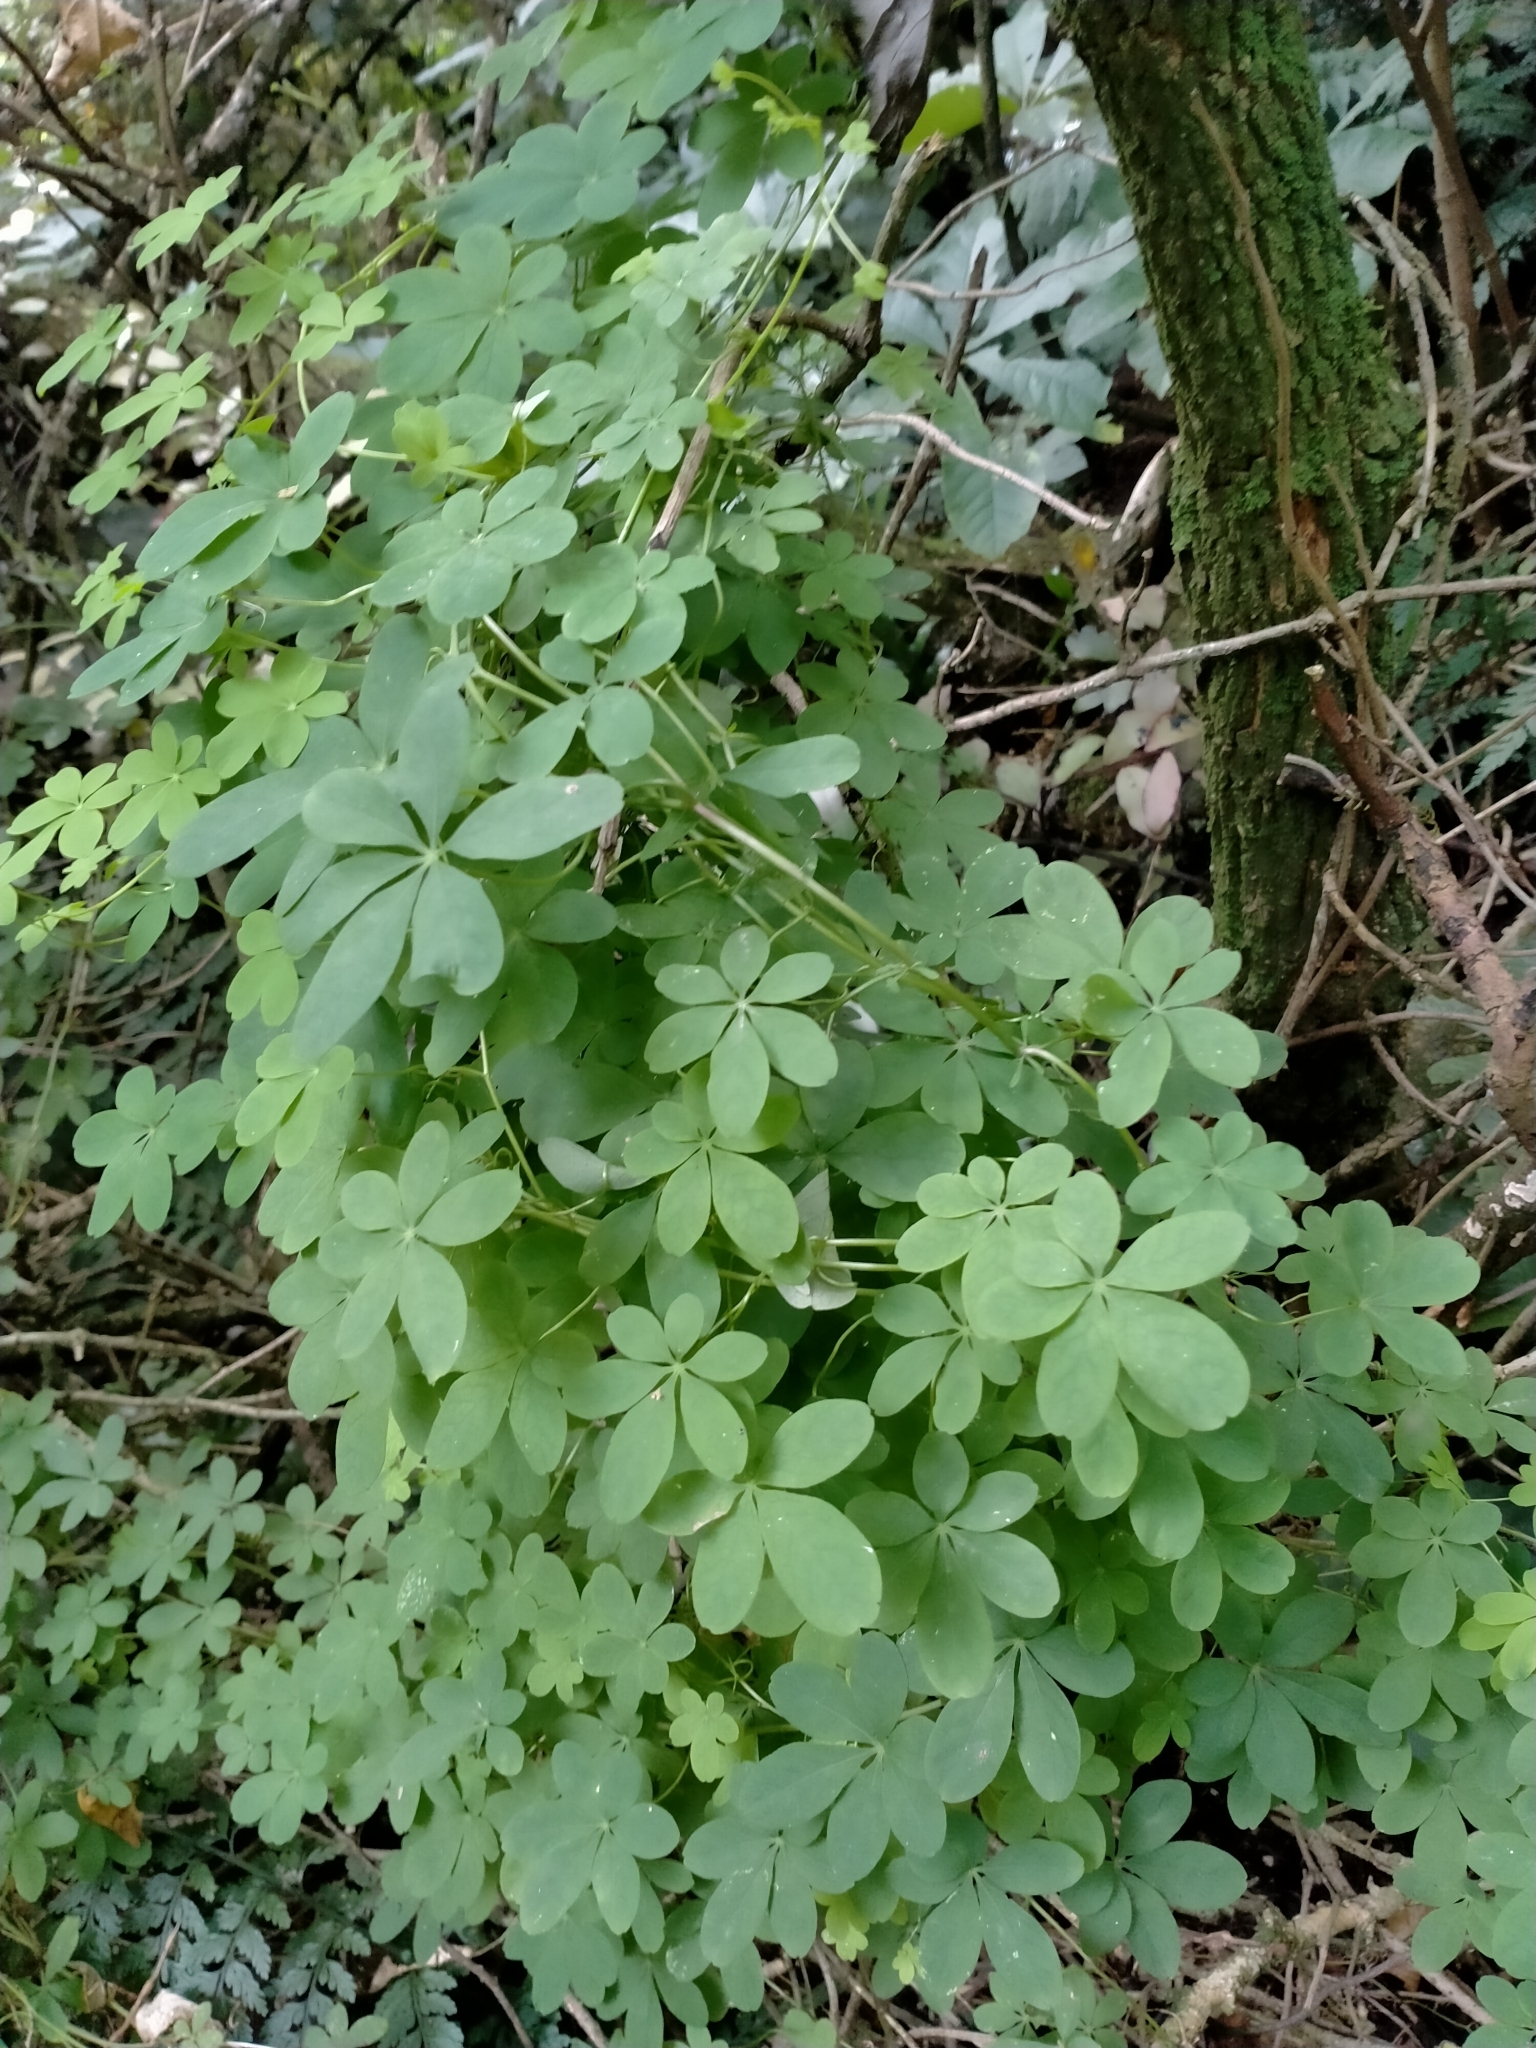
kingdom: Plantae
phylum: Tracheophyta
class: Magnoliopsida
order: Brassicales
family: Tropaeolaceae
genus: Tropaeolum
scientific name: Tropaeolum speciosum
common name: Flame nasturtium
